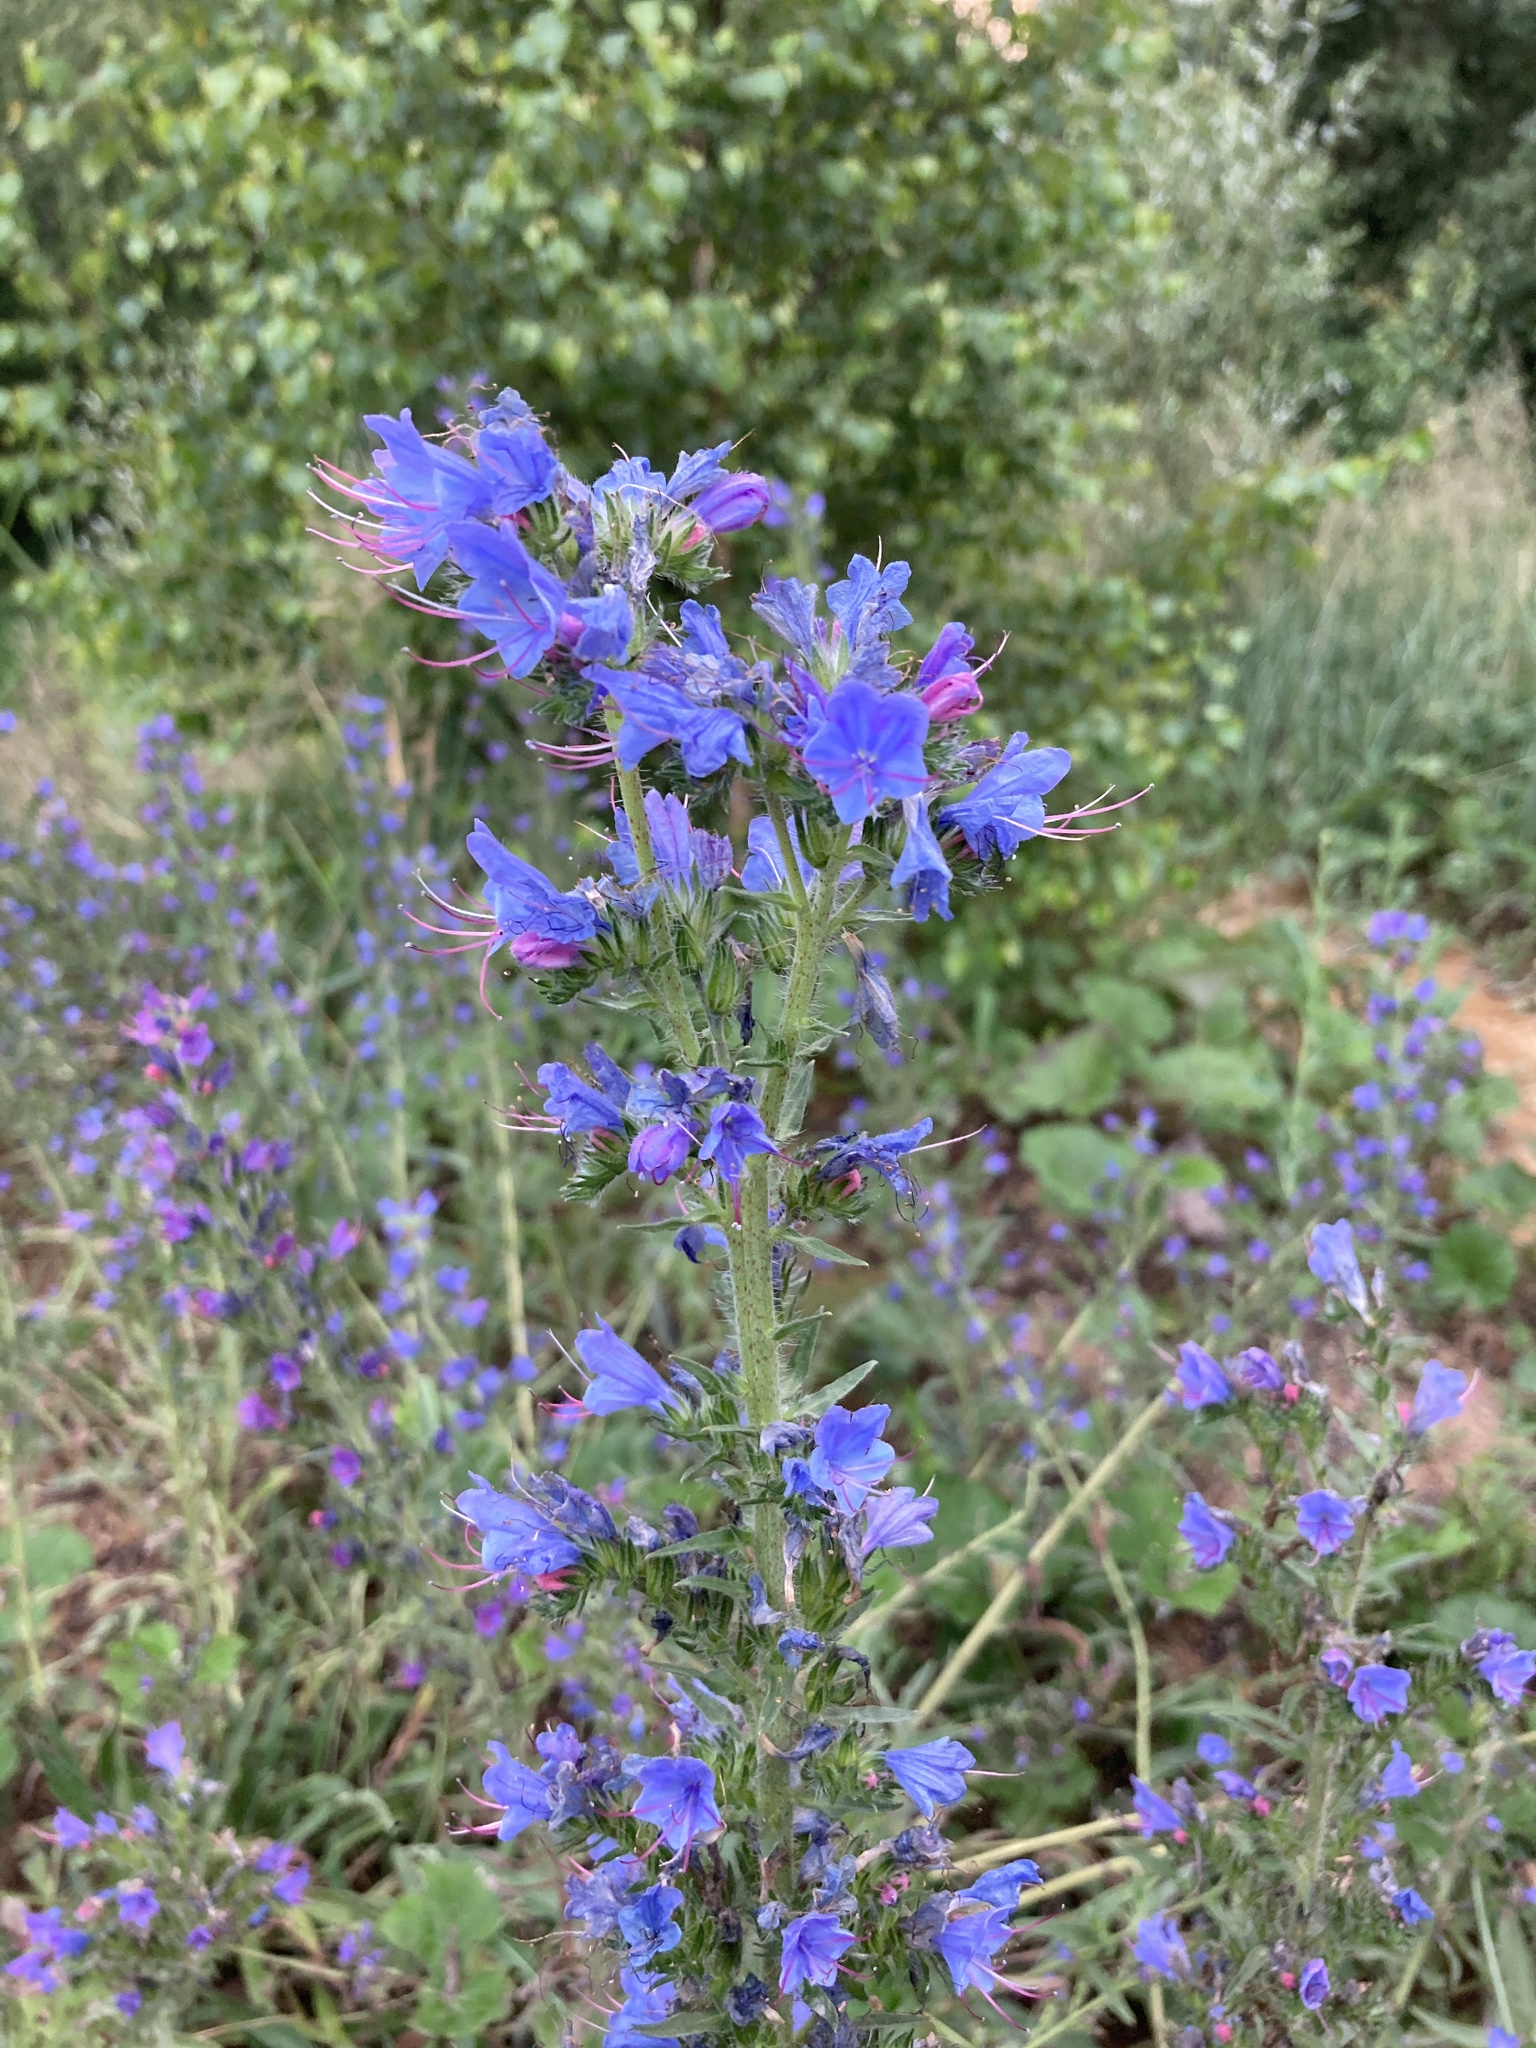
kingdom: Plantae
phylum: Tracheophyta
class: Magnoliopsida
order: Boraginales
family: Boraginaceae
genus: Echium
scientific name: Echium vulgare
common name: Common viper's bugloss
